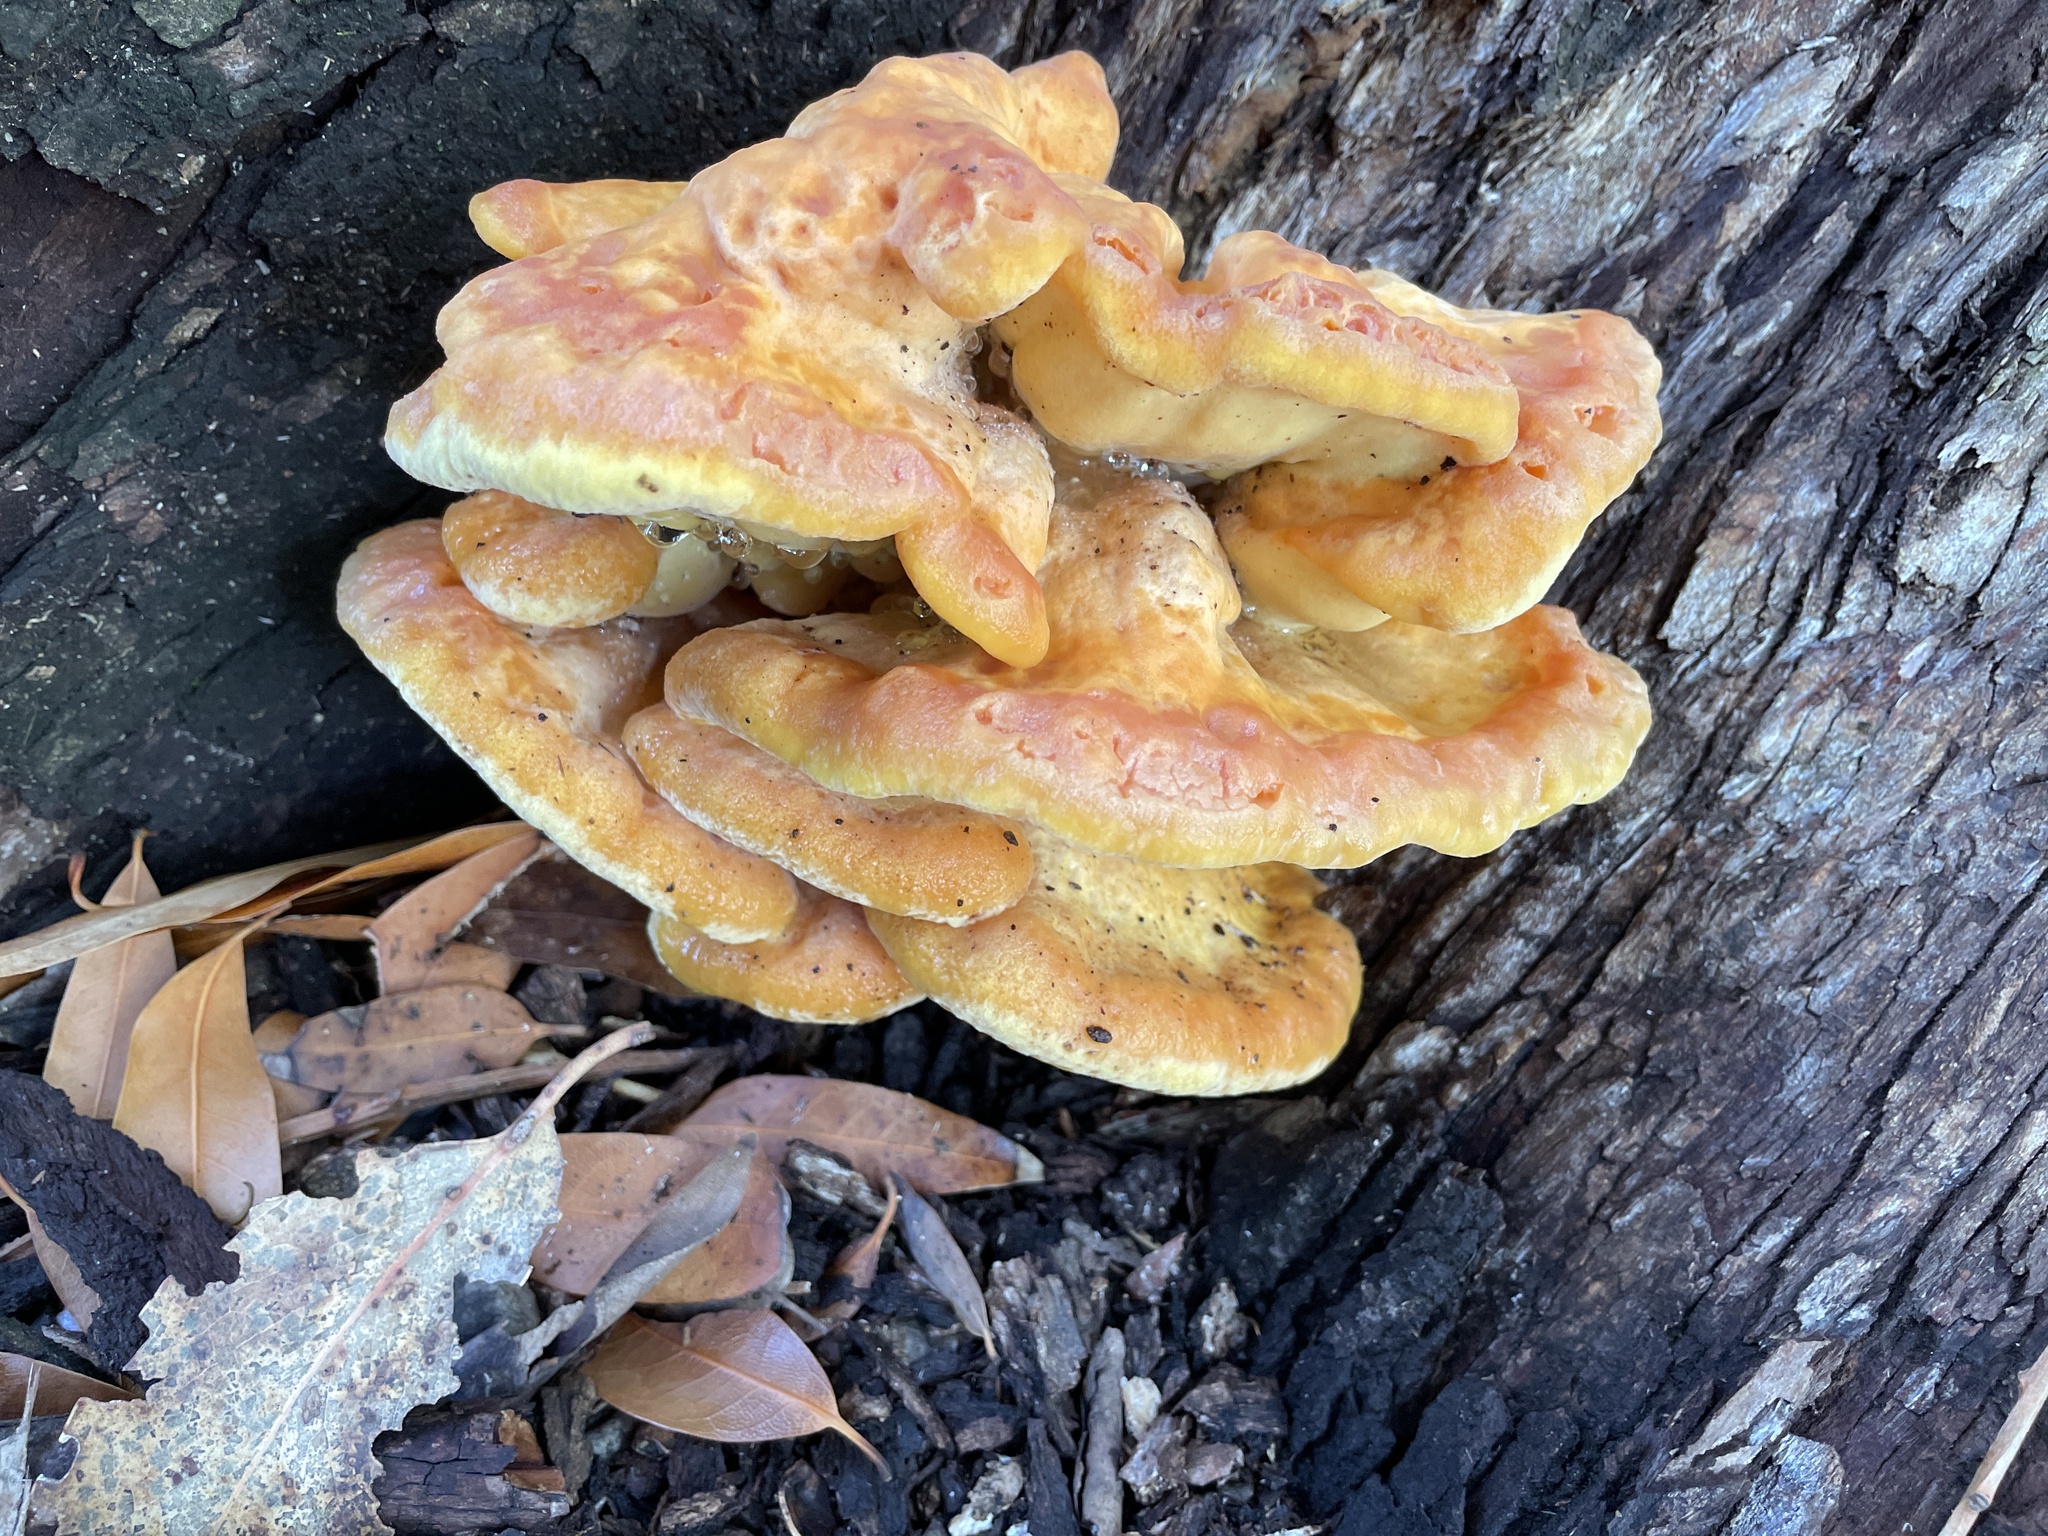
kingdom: Fungi
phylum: Basidiomycota
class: Agaricomycetes
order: Polyporales
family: Laetiporaceae
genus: Laetiporus
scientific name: Laetiporus gilbertsonii
